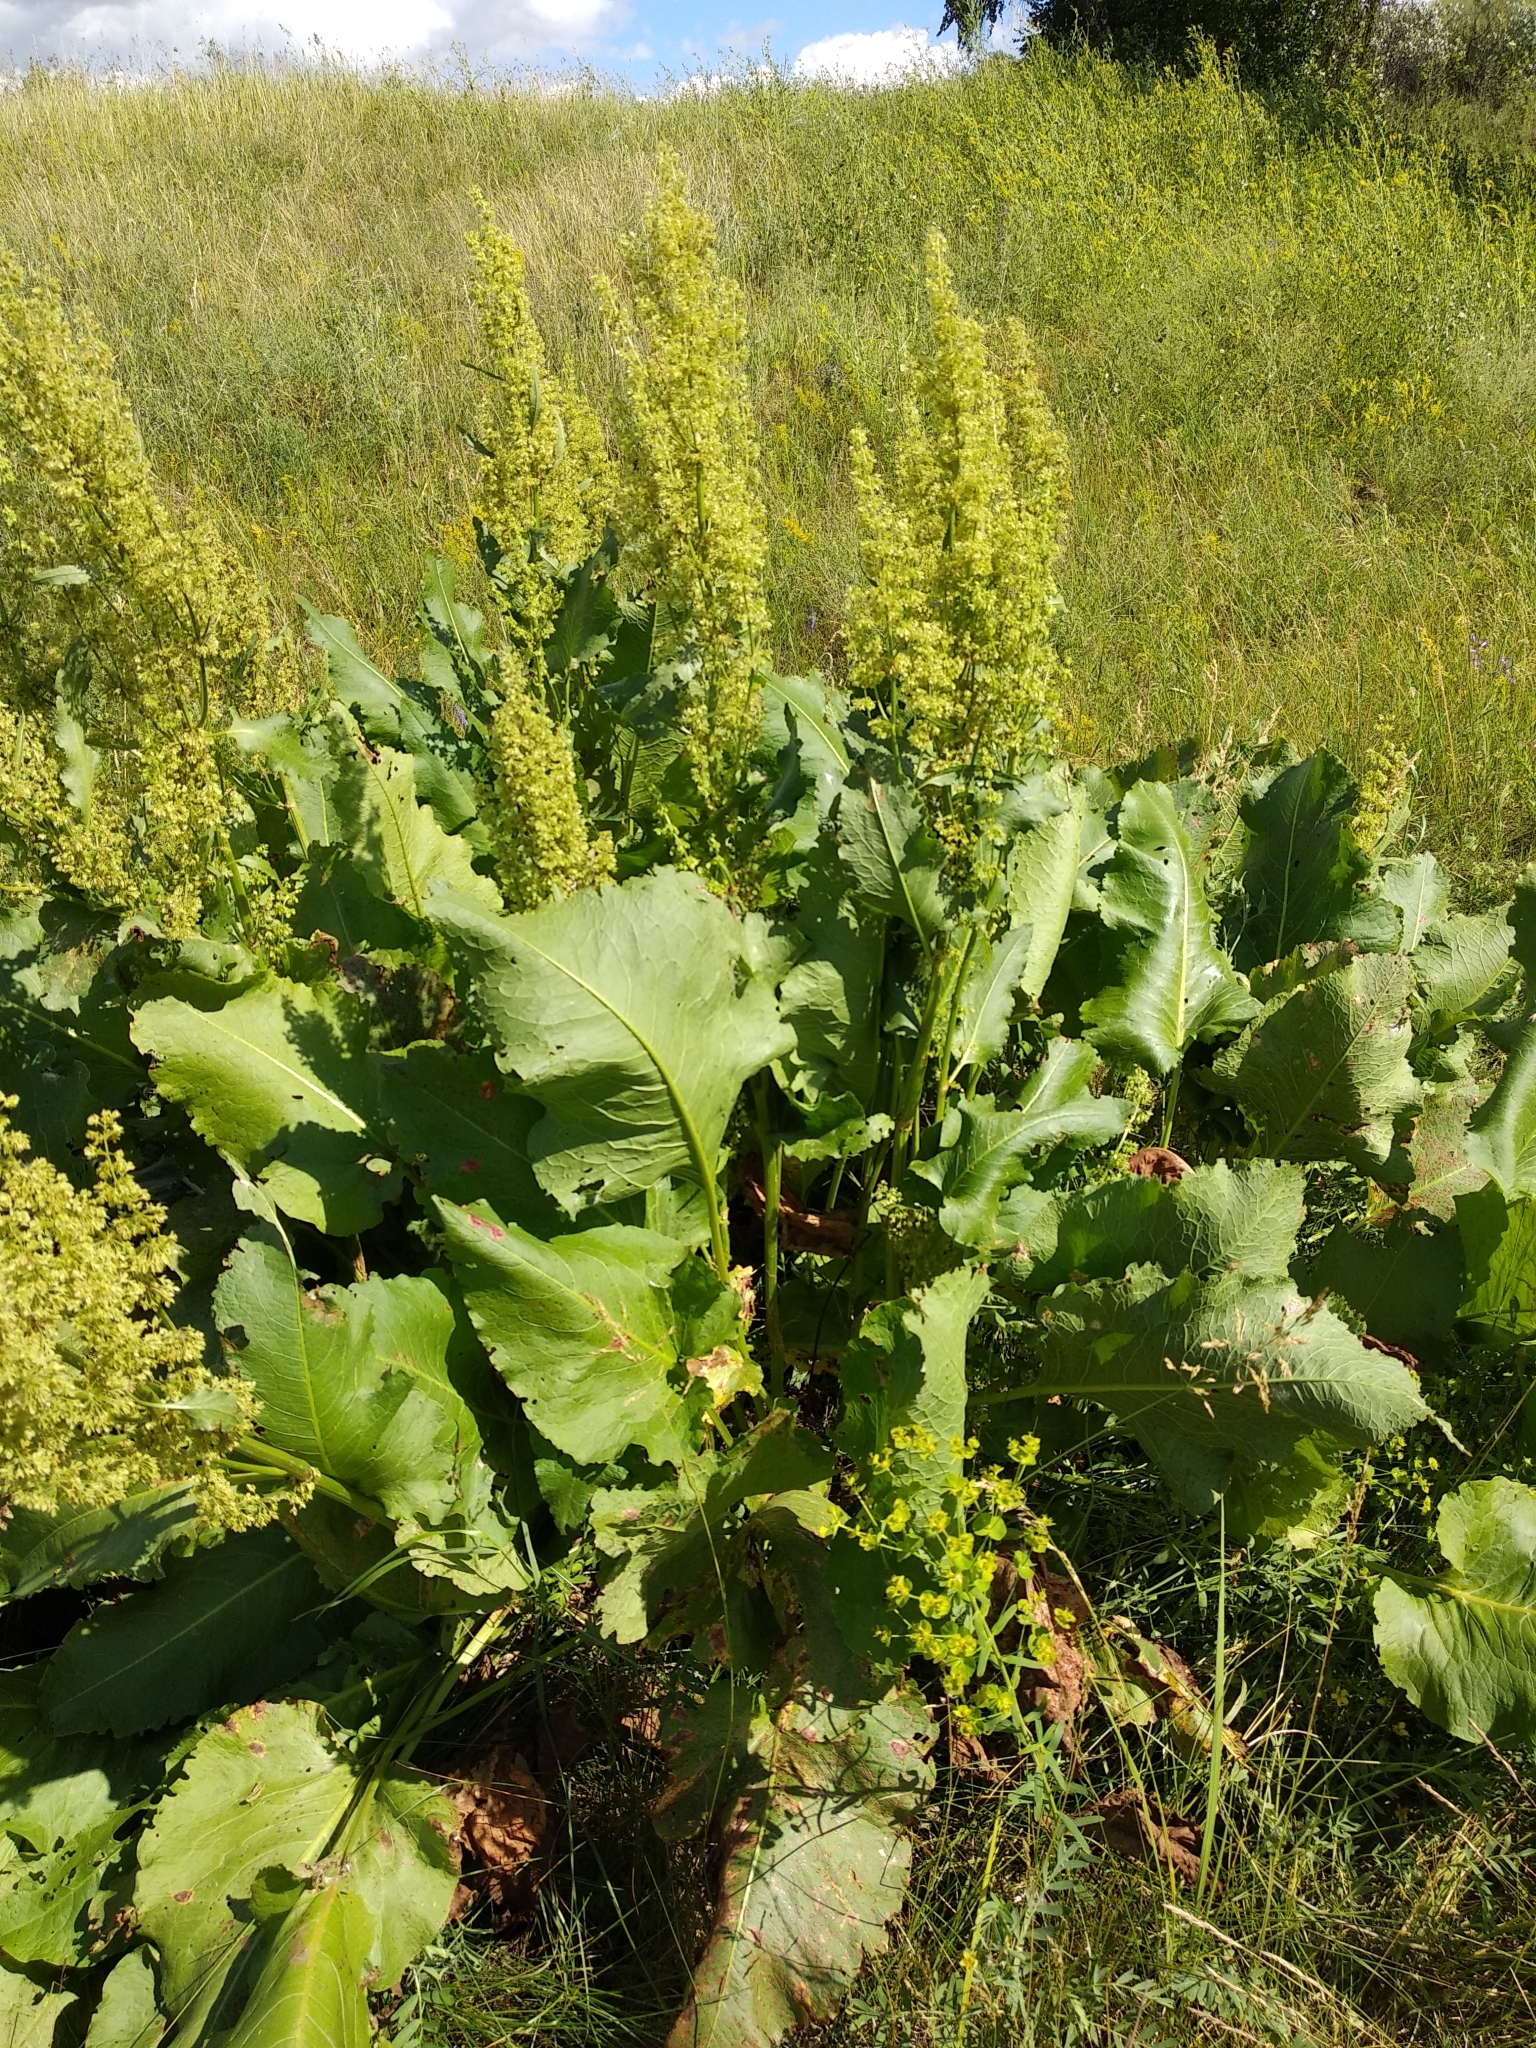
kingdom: Plantae
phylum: Tracheophyta
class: Magnoliopsida
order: Caryophyllales
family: Polygonaceae
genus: Rumex
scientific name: Rumex confertus
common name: Russian dock
